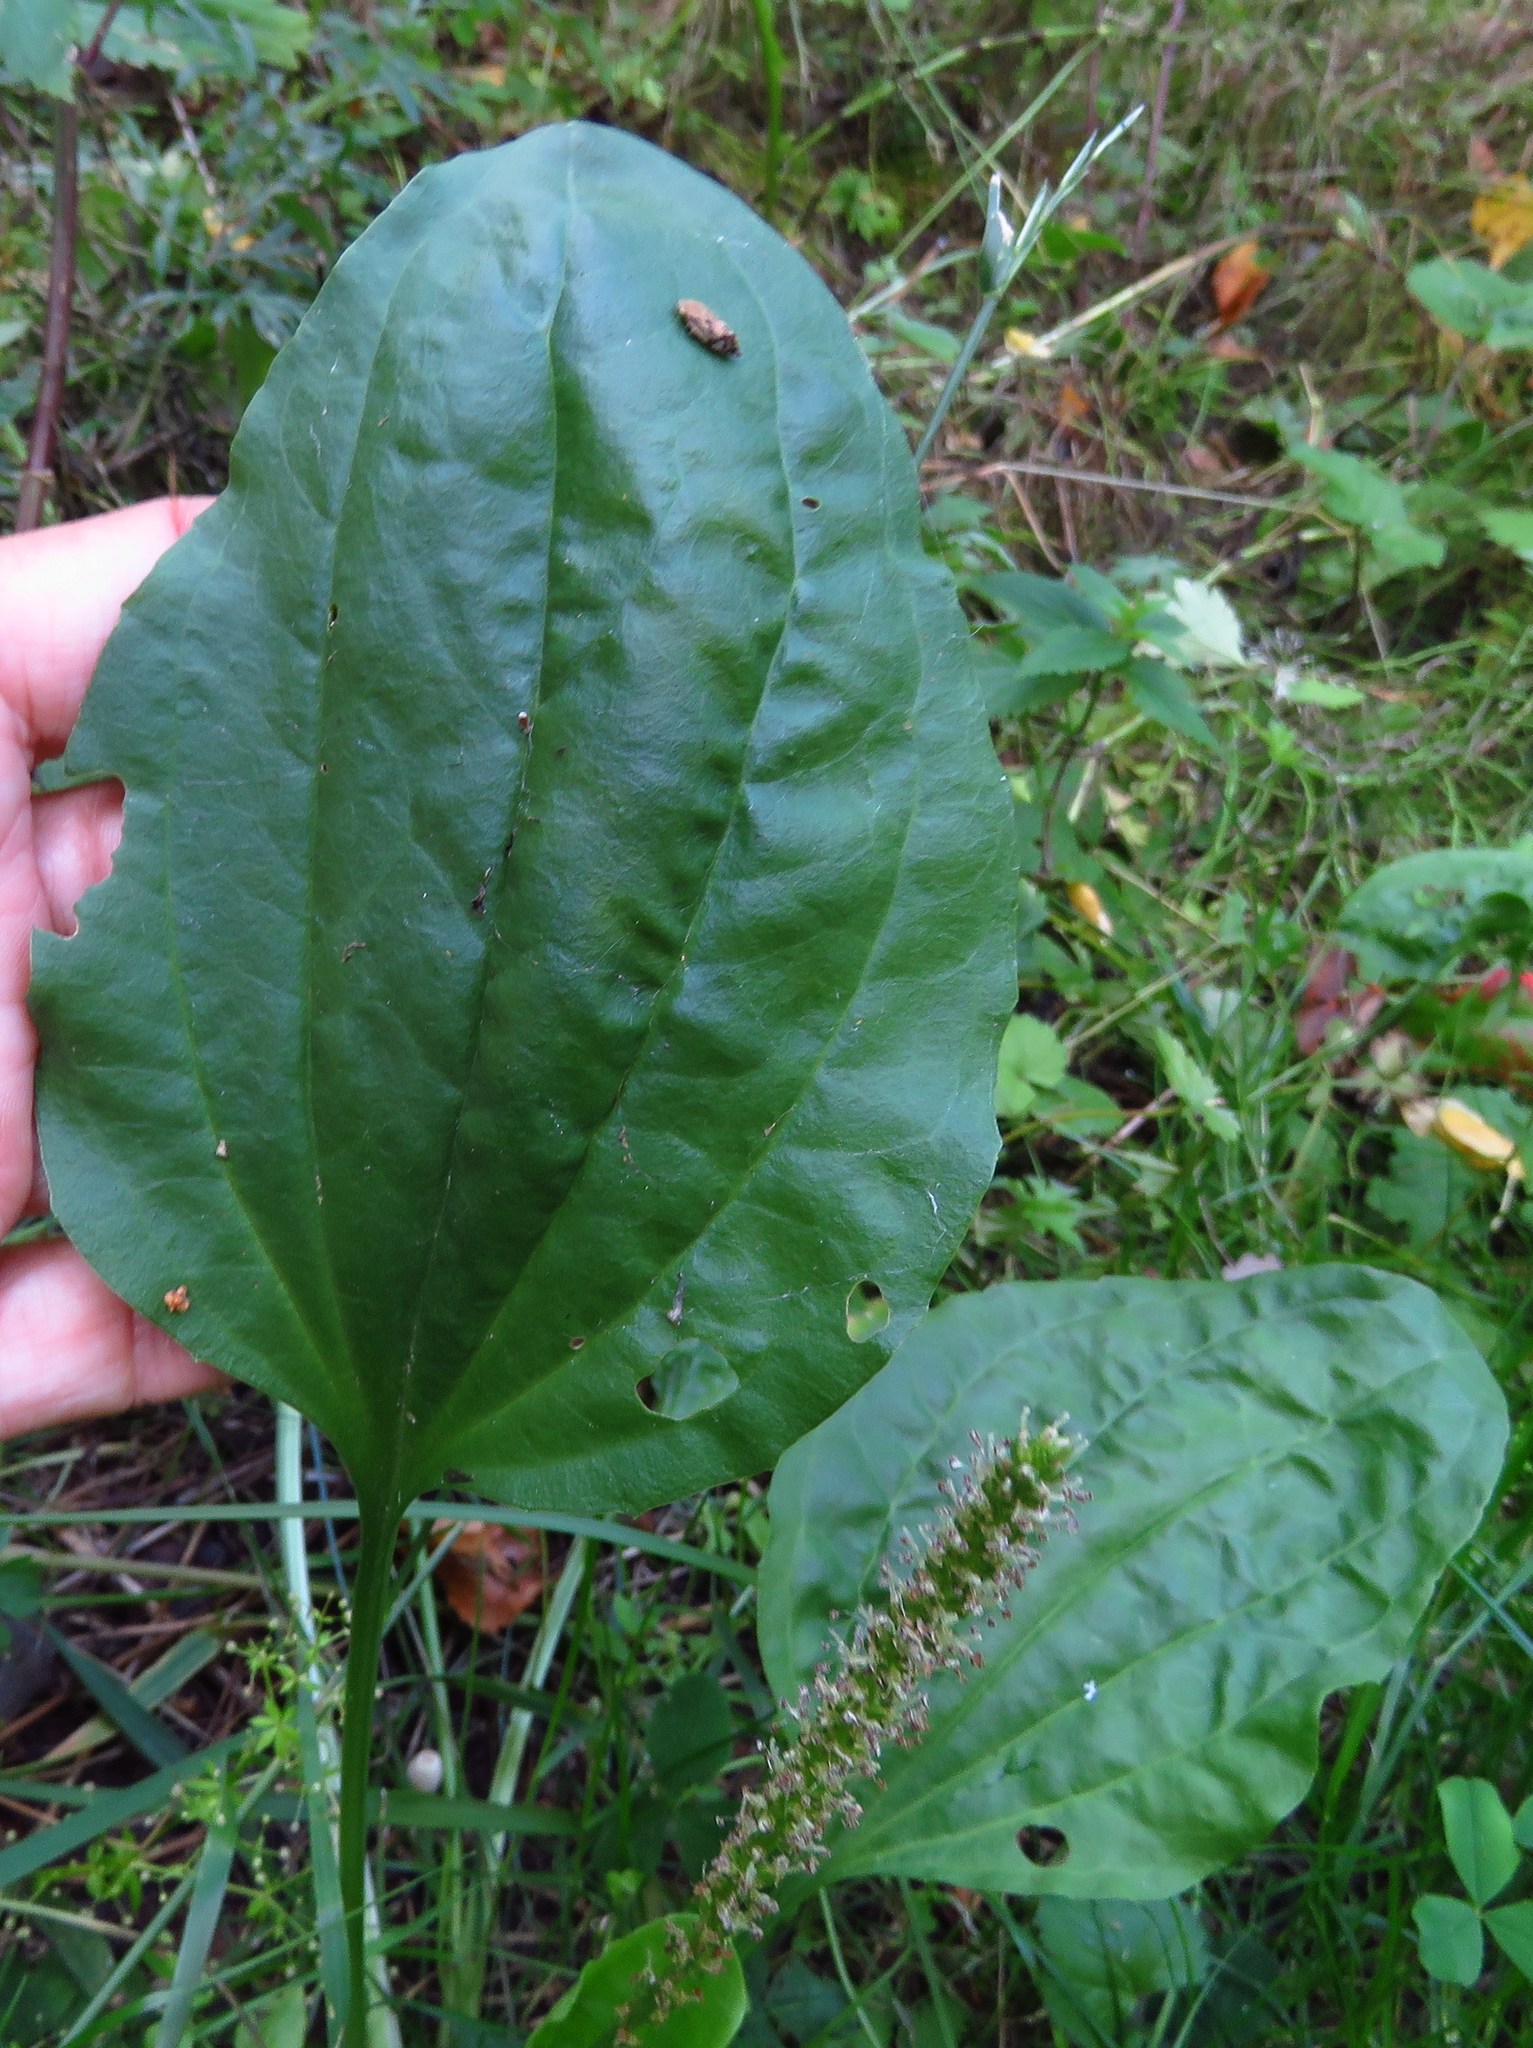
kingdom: Plantae
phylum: Tracheophyta
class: Magnoliopsida
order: Lamiales
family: Plantaginaceae
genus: Plantago
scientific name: Plantago major
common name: Common plantain
